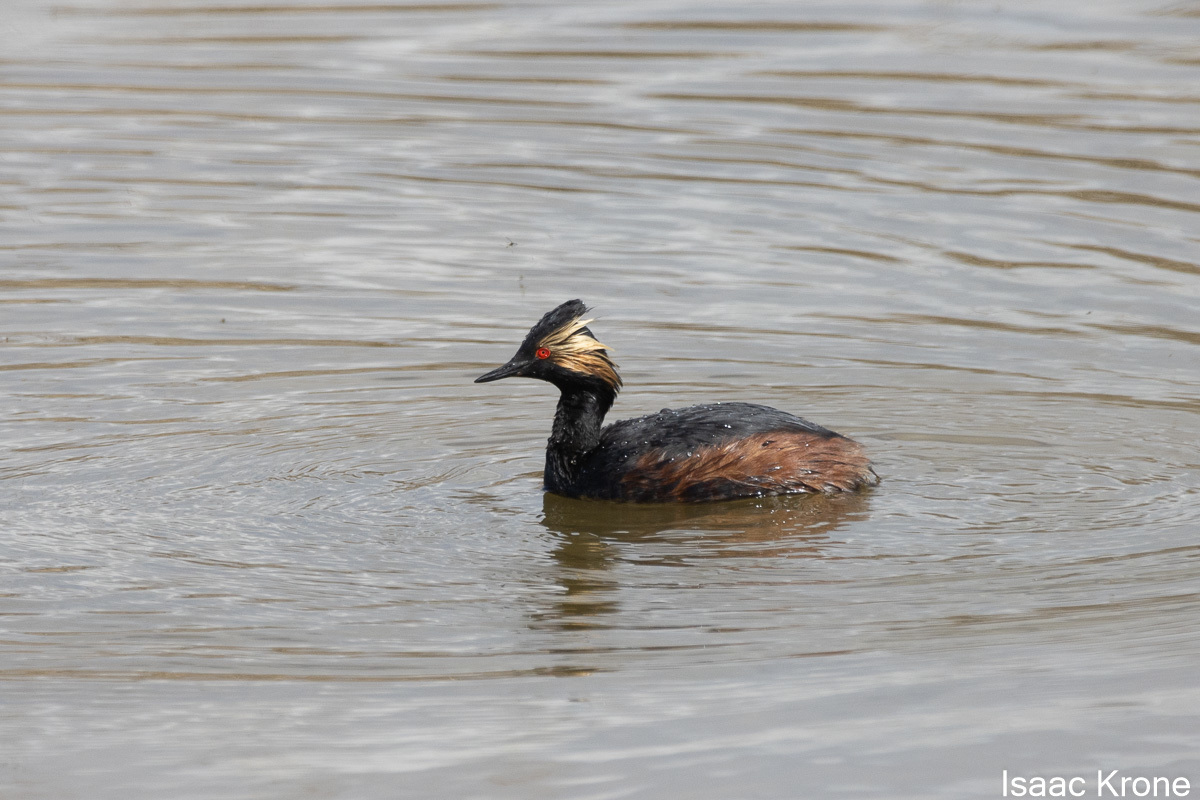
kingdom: Animalia
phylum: Chordata
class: Aves
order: Podicipediformes
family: Podicipedidae
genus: Podiceps
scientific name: Podiceps nigricollis
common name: Black-necked grebe
